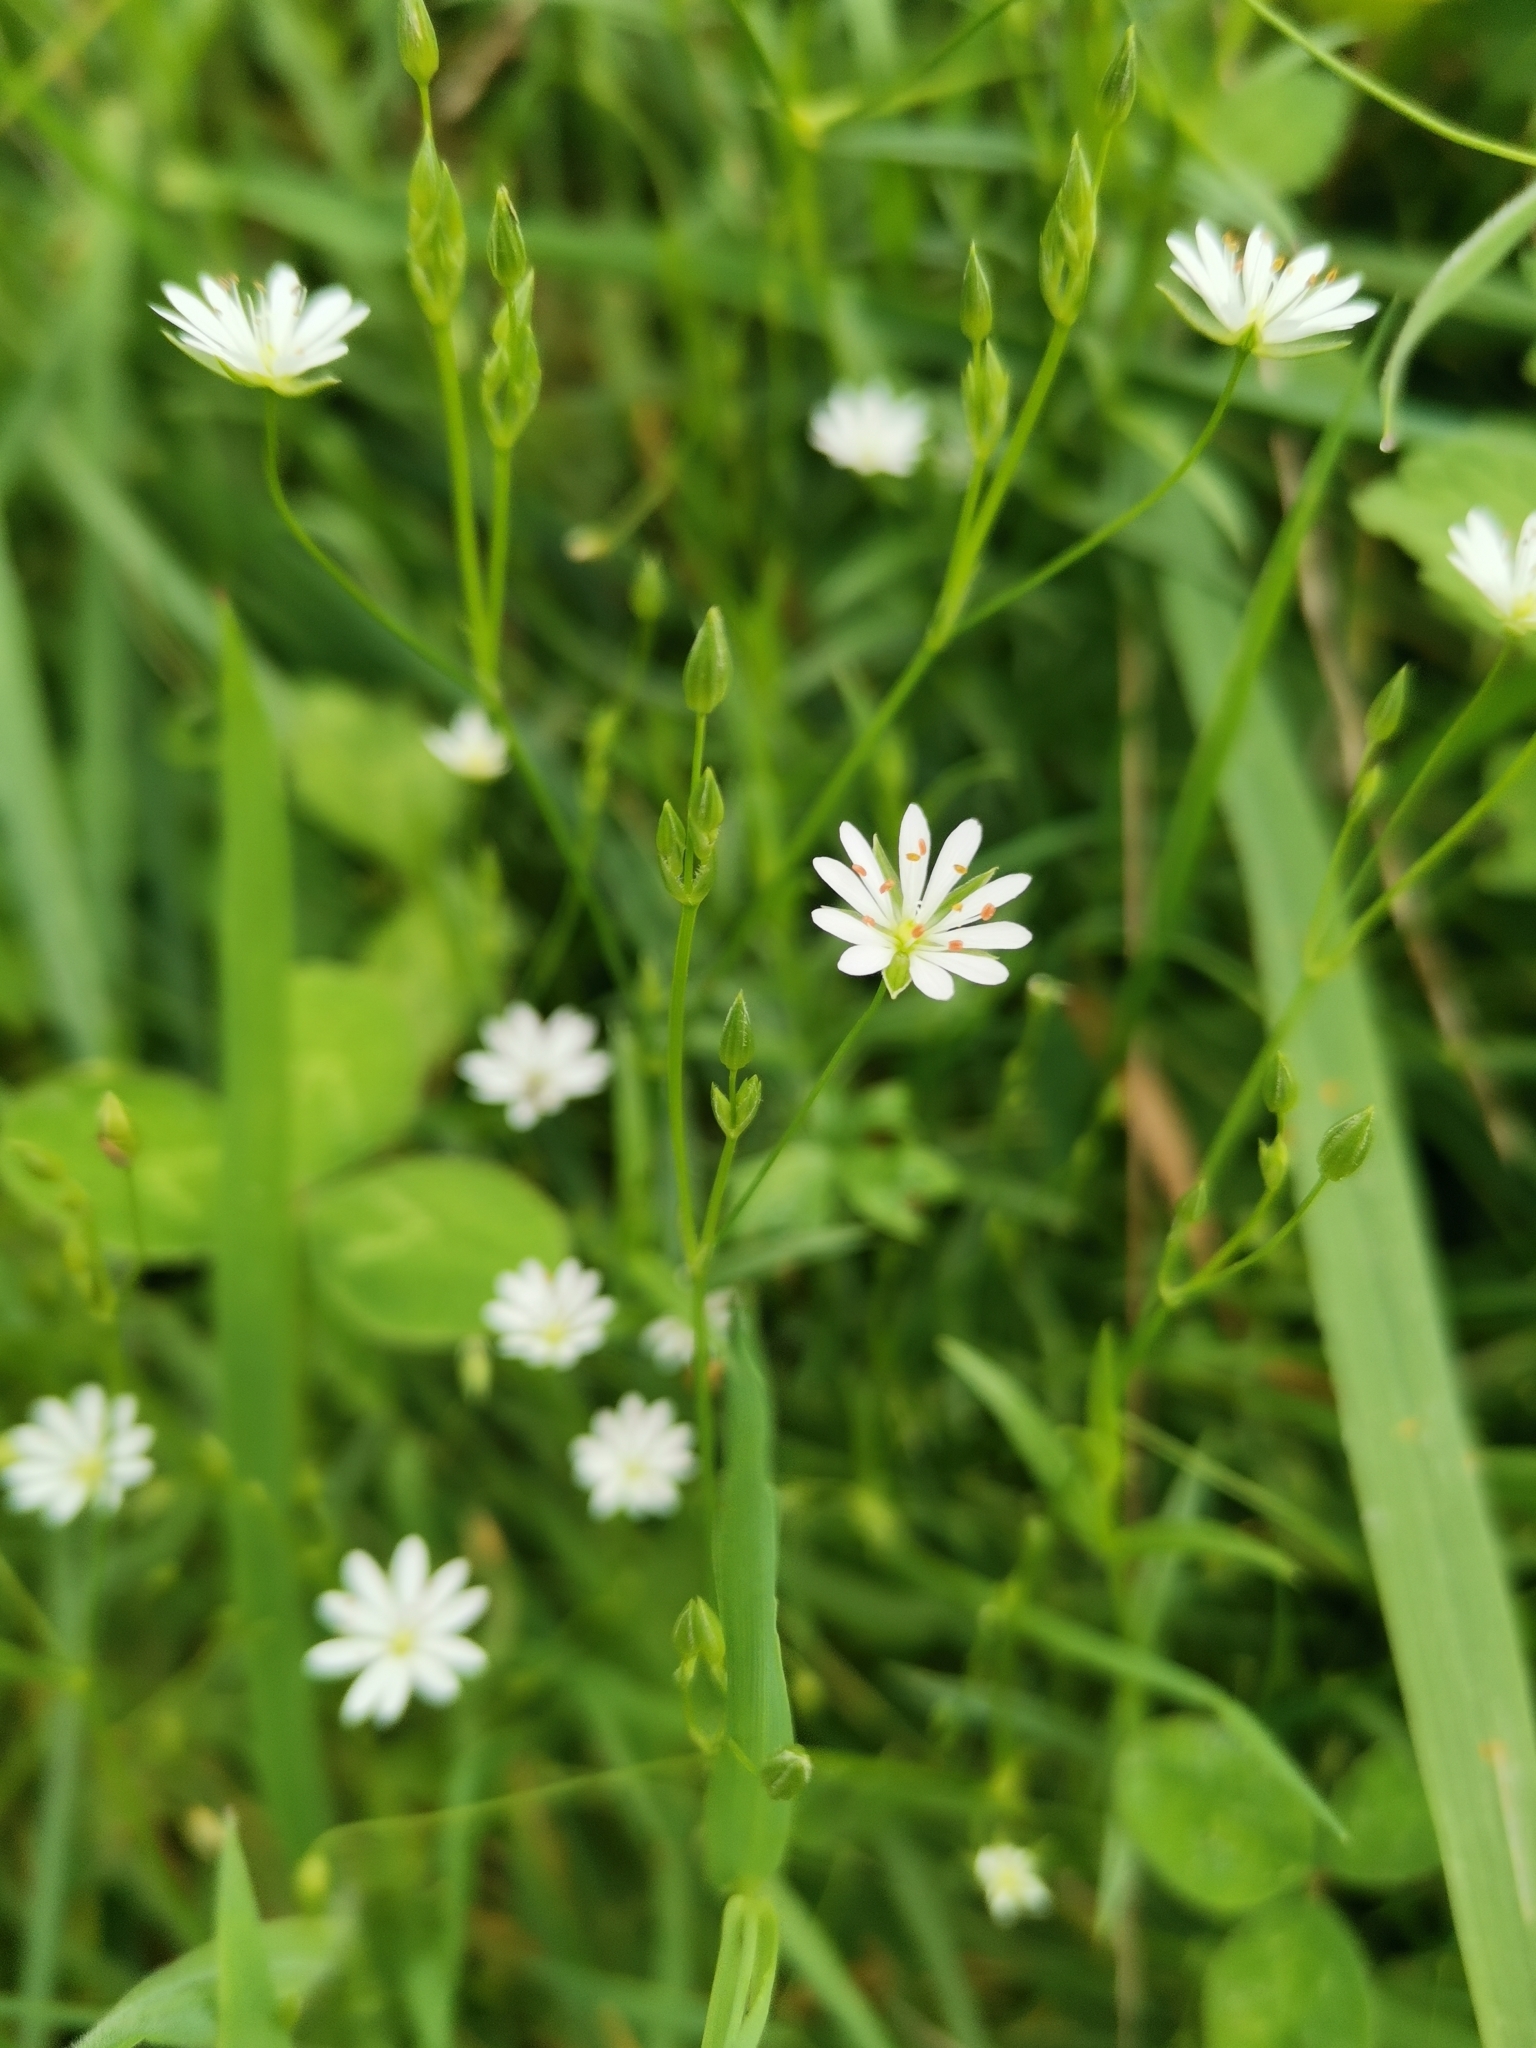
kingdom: Plantae
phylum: Tracheophyta
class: Magnoliopsida
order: Caryophyllales
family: Caryophyllaceae
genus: Stellaria
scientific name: Stellaria graminea
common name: Grass-like starwort
